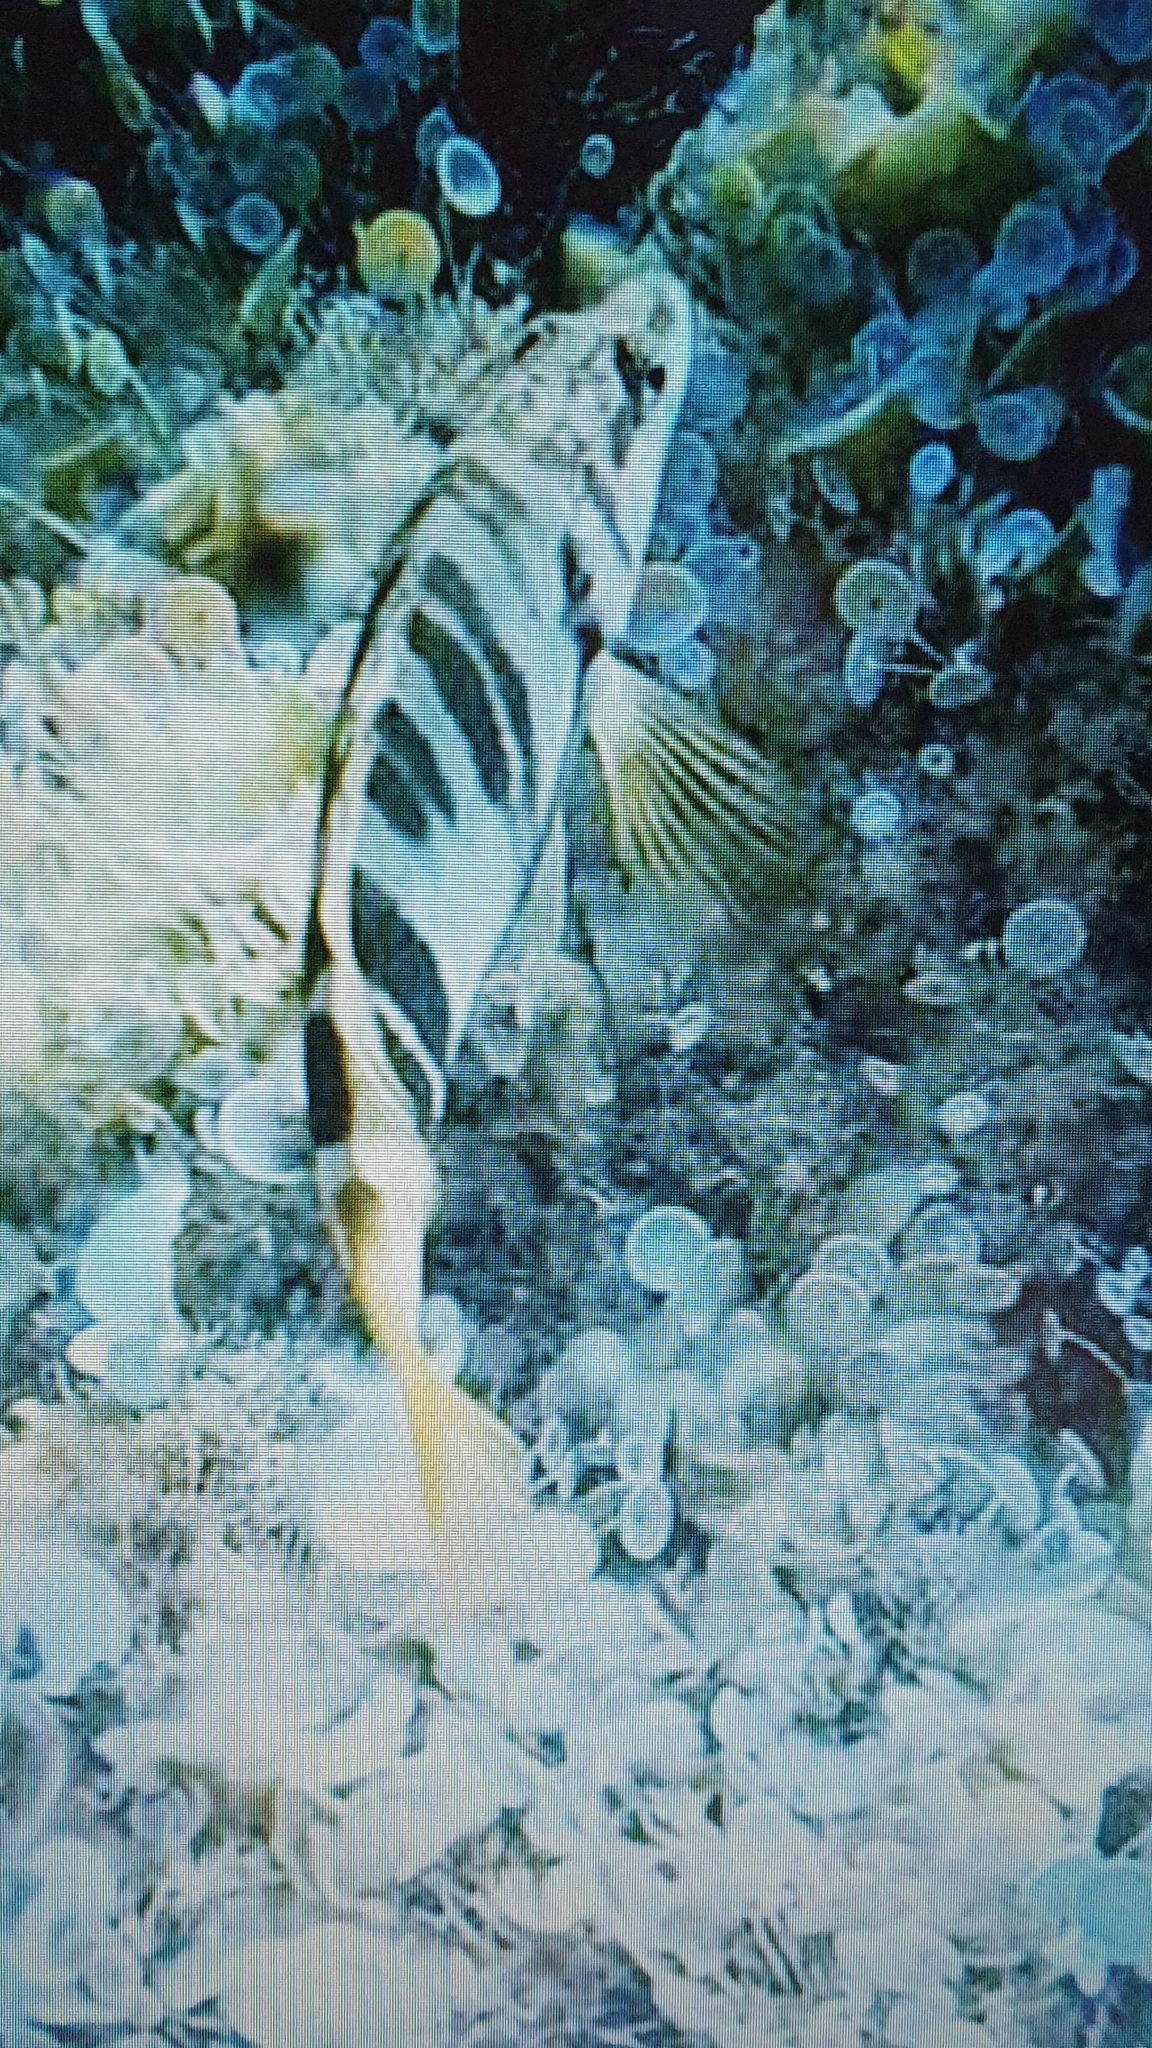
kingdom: Animalia
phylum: Chordata
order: Perciformes
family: Serranidae
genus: Serranus
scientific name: Serranus scriba
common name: Painted comber
